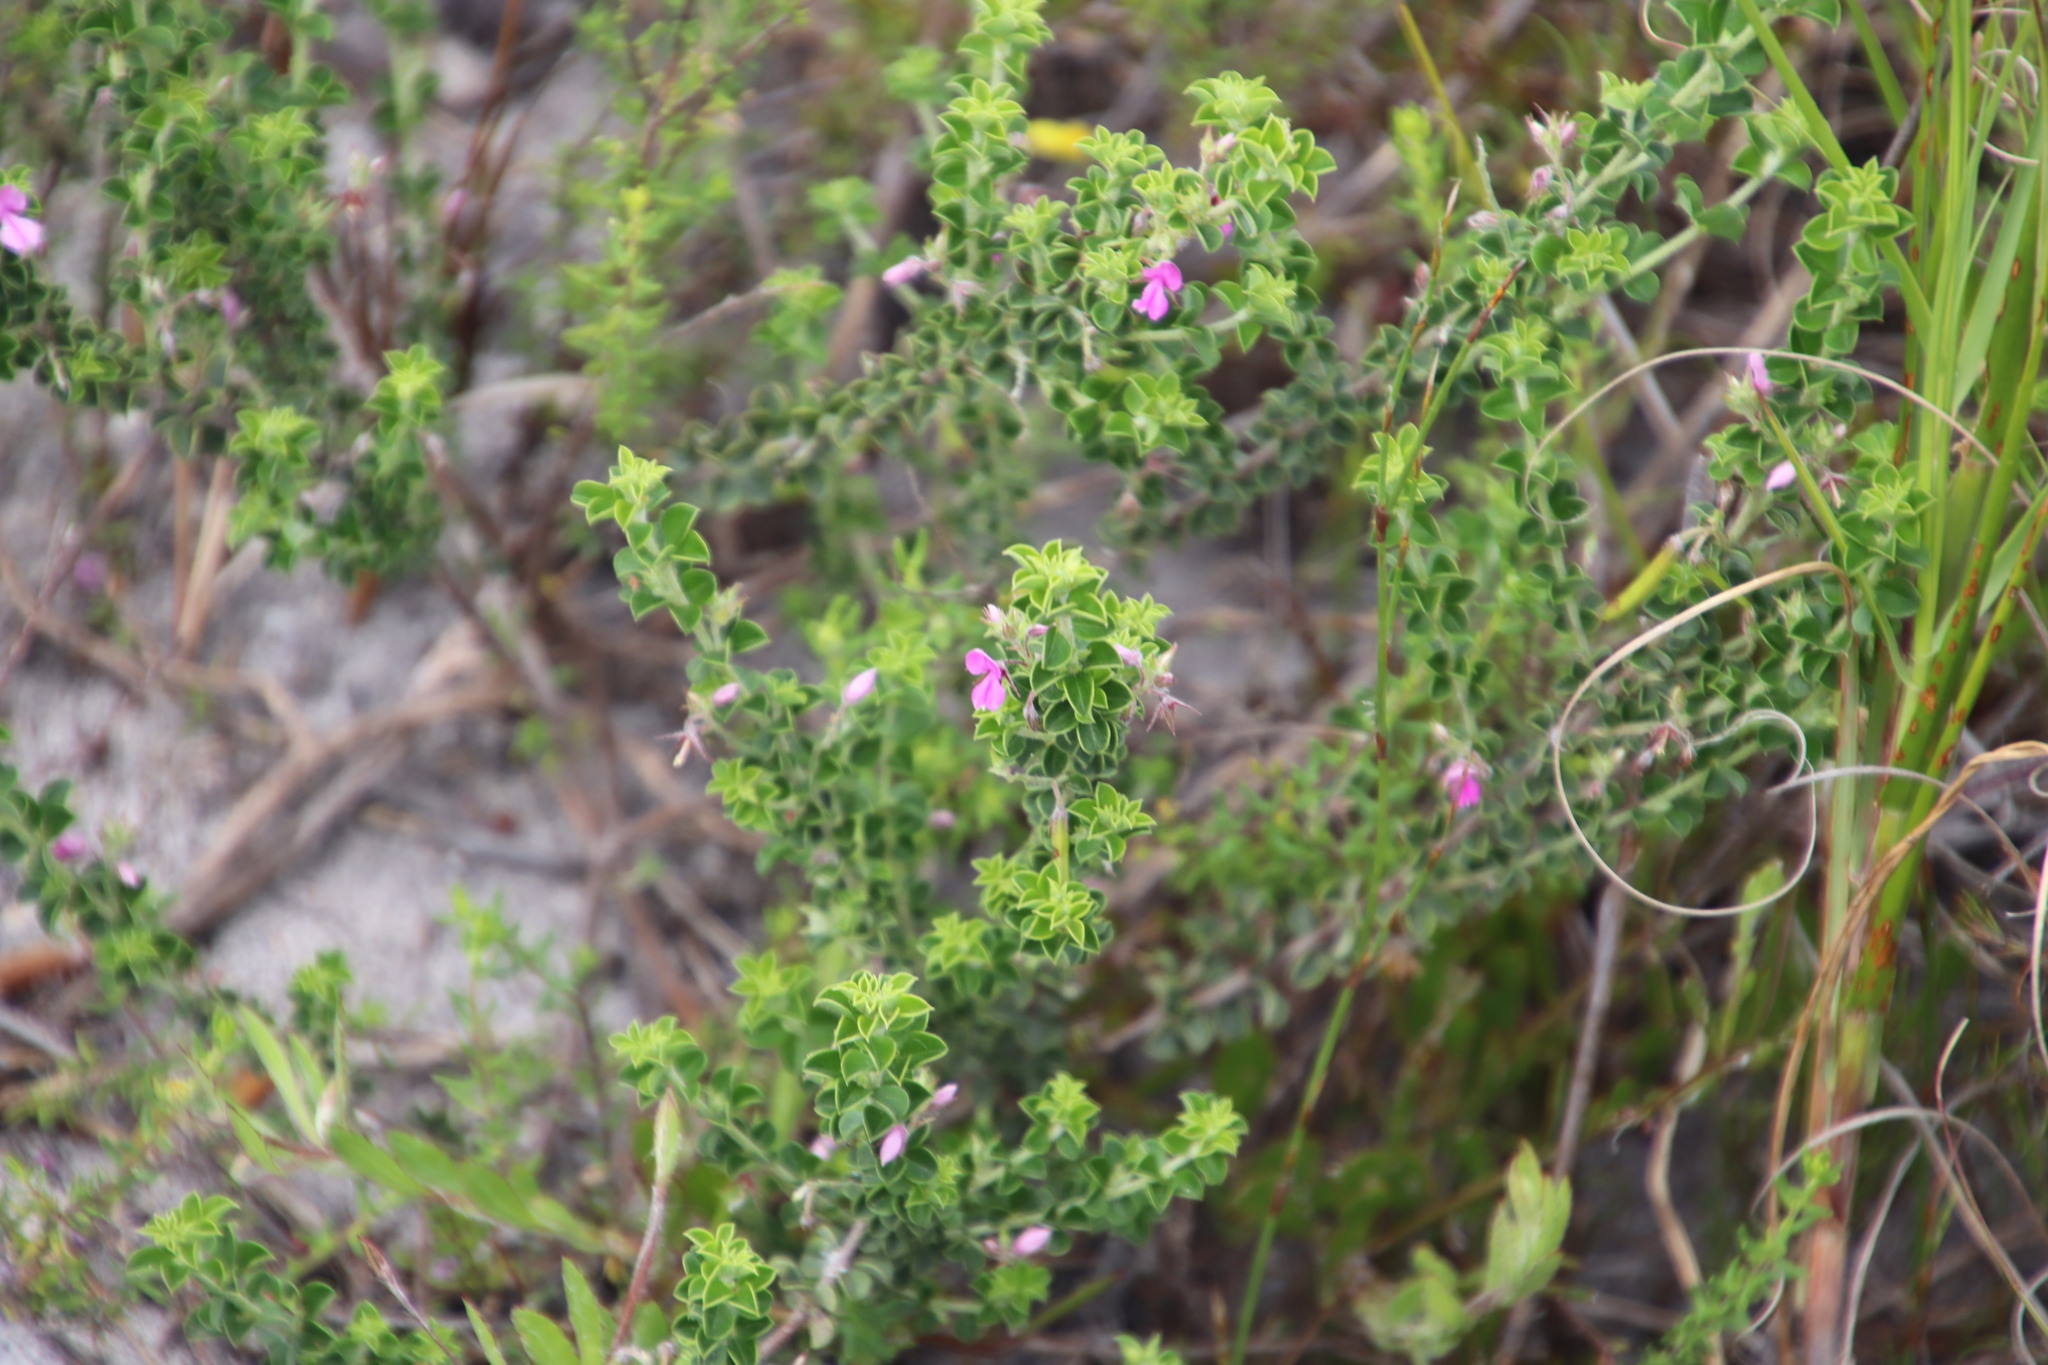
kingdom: Plantae
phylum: Tracheophyta
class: Magnoliopsida
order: Fabales
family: Fabaceae
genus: Indigofera
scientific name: Indigofera candolleana
